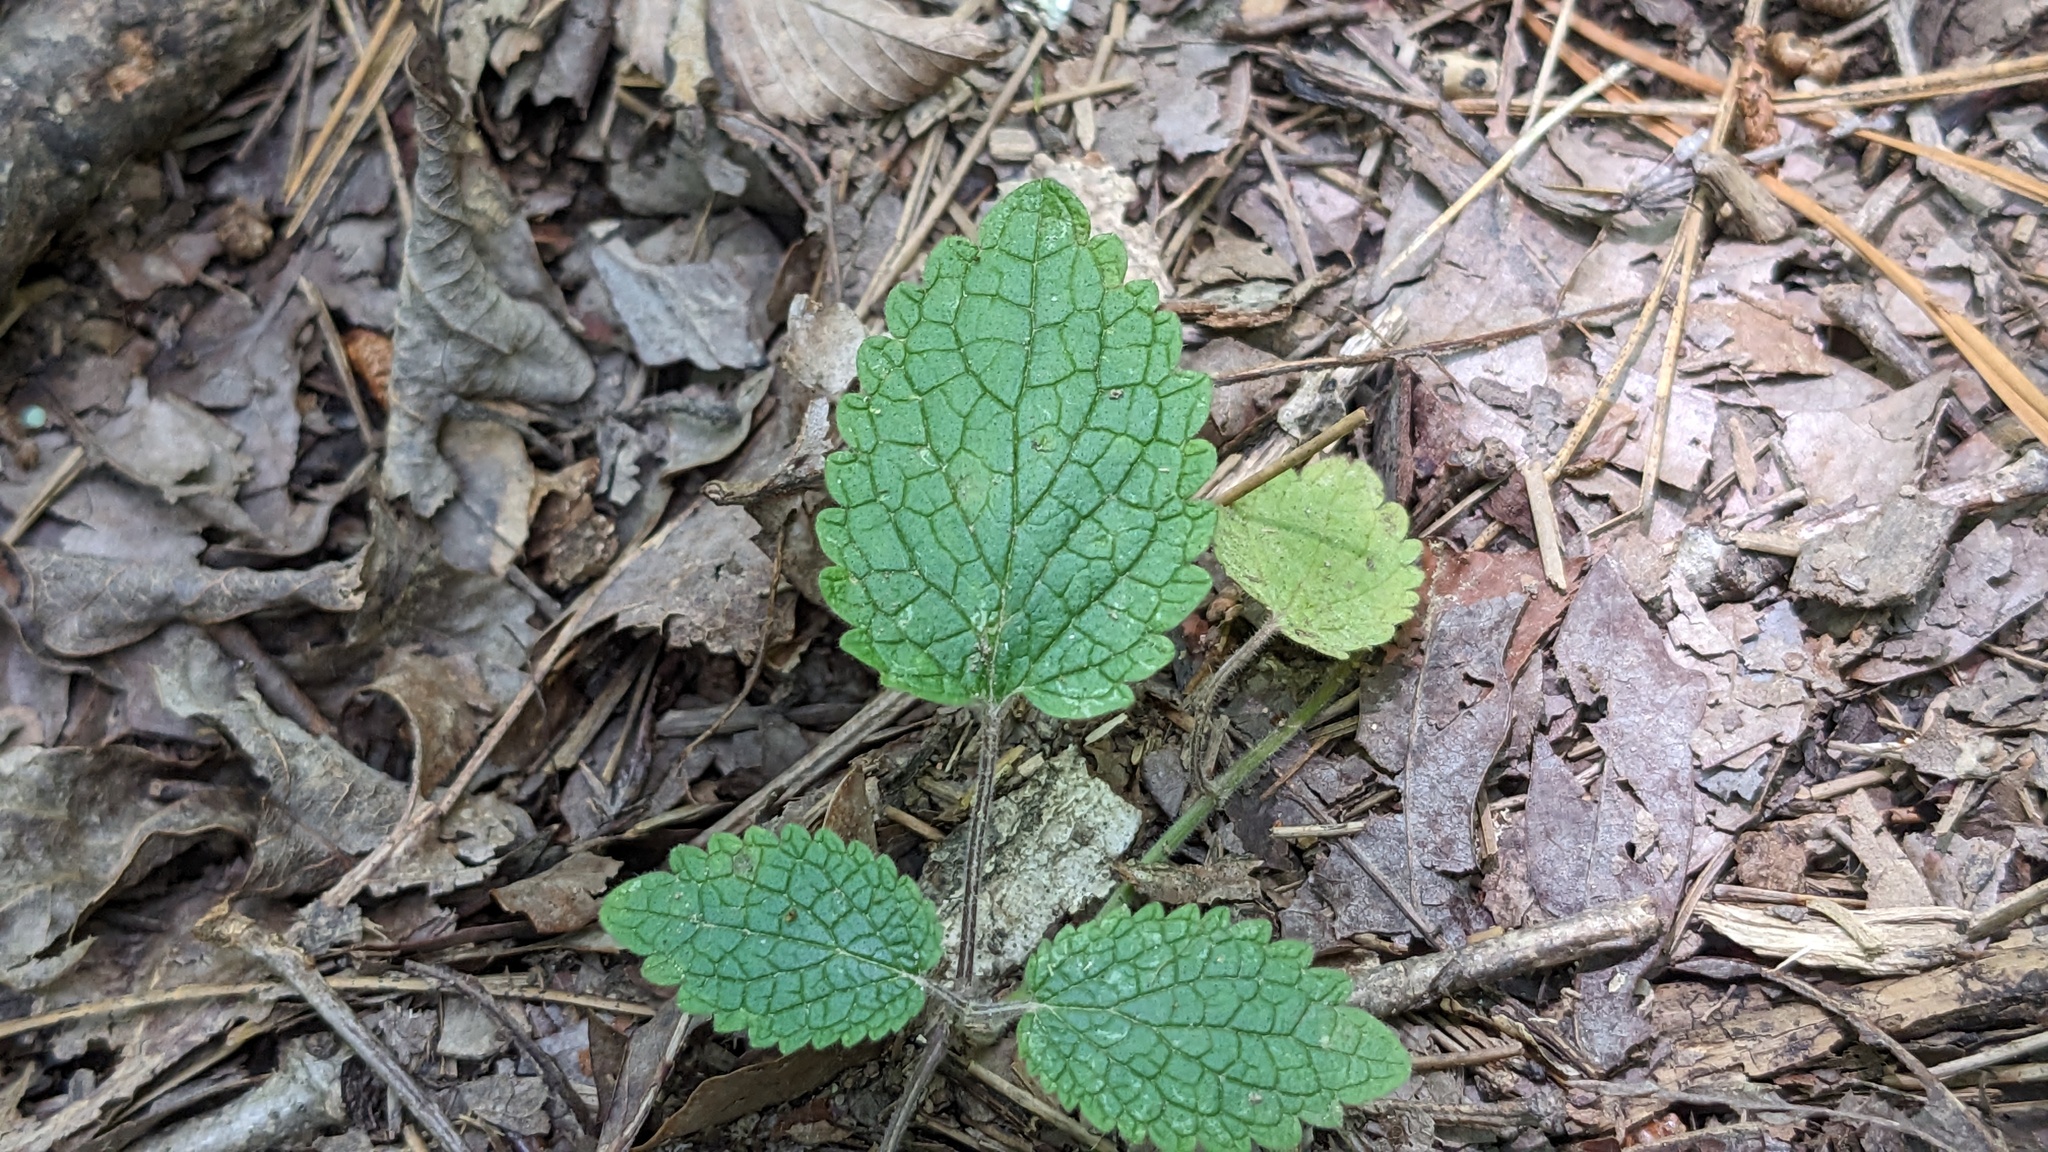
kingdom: Plantae
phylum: Tracheophyta
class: Magnoliopsida
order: Lamiales
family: Lamiaceae
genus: Scutellaria
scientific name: Scutellaria ovata
